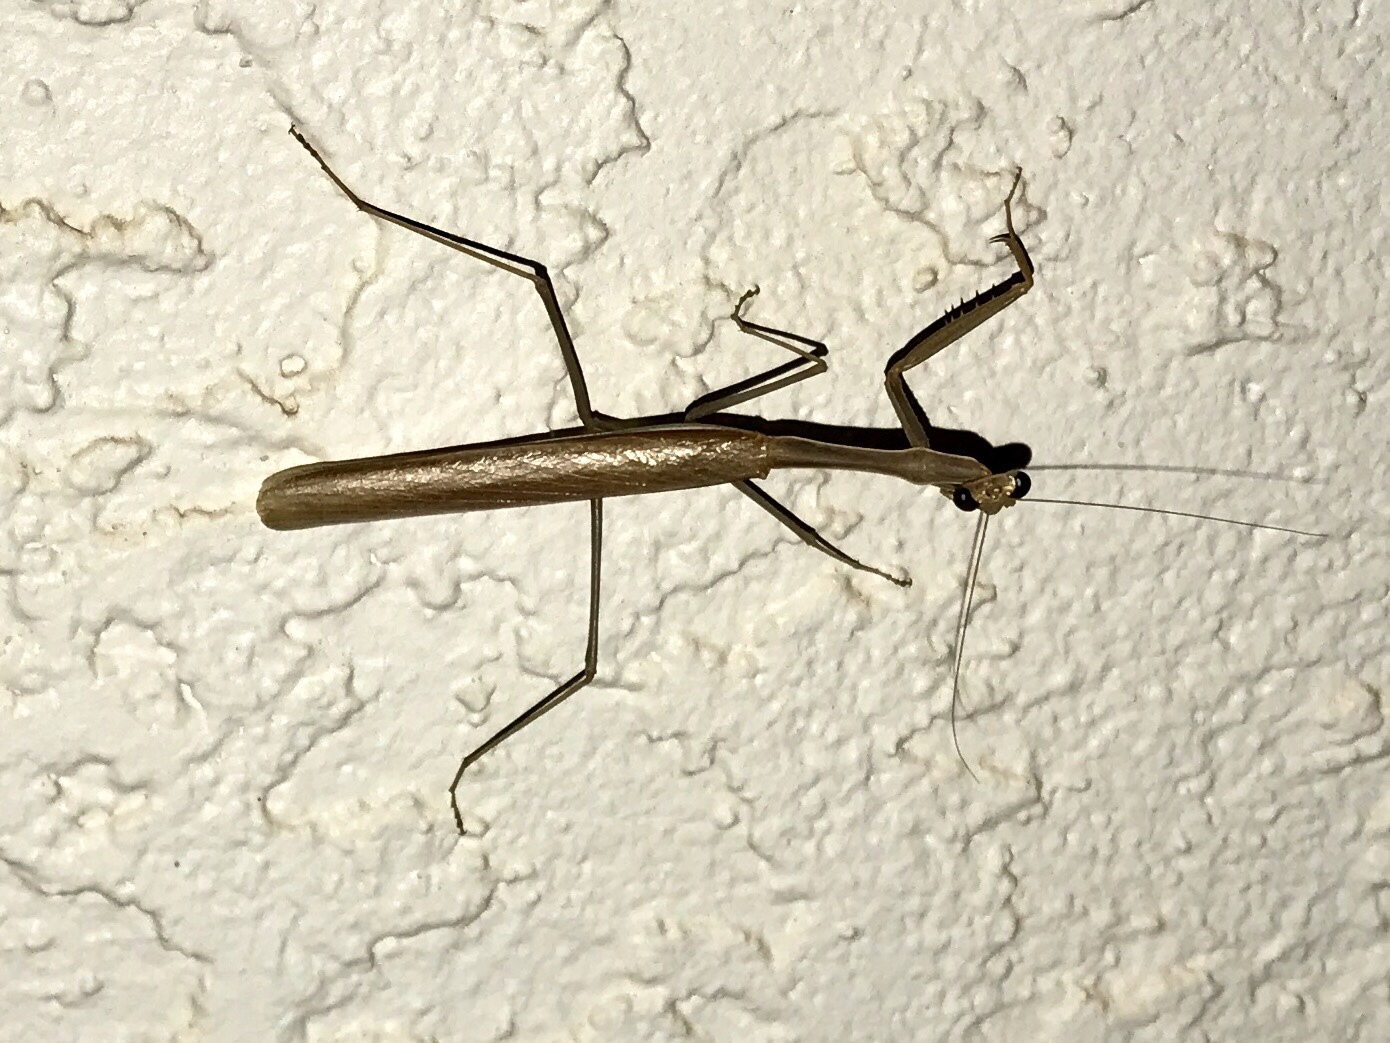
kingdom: Animalia
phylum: Arthropoda
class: Insecta
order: Mantodea
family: Mantidae
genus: Stagmomantis
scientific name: Stagmomantis gracilipes
